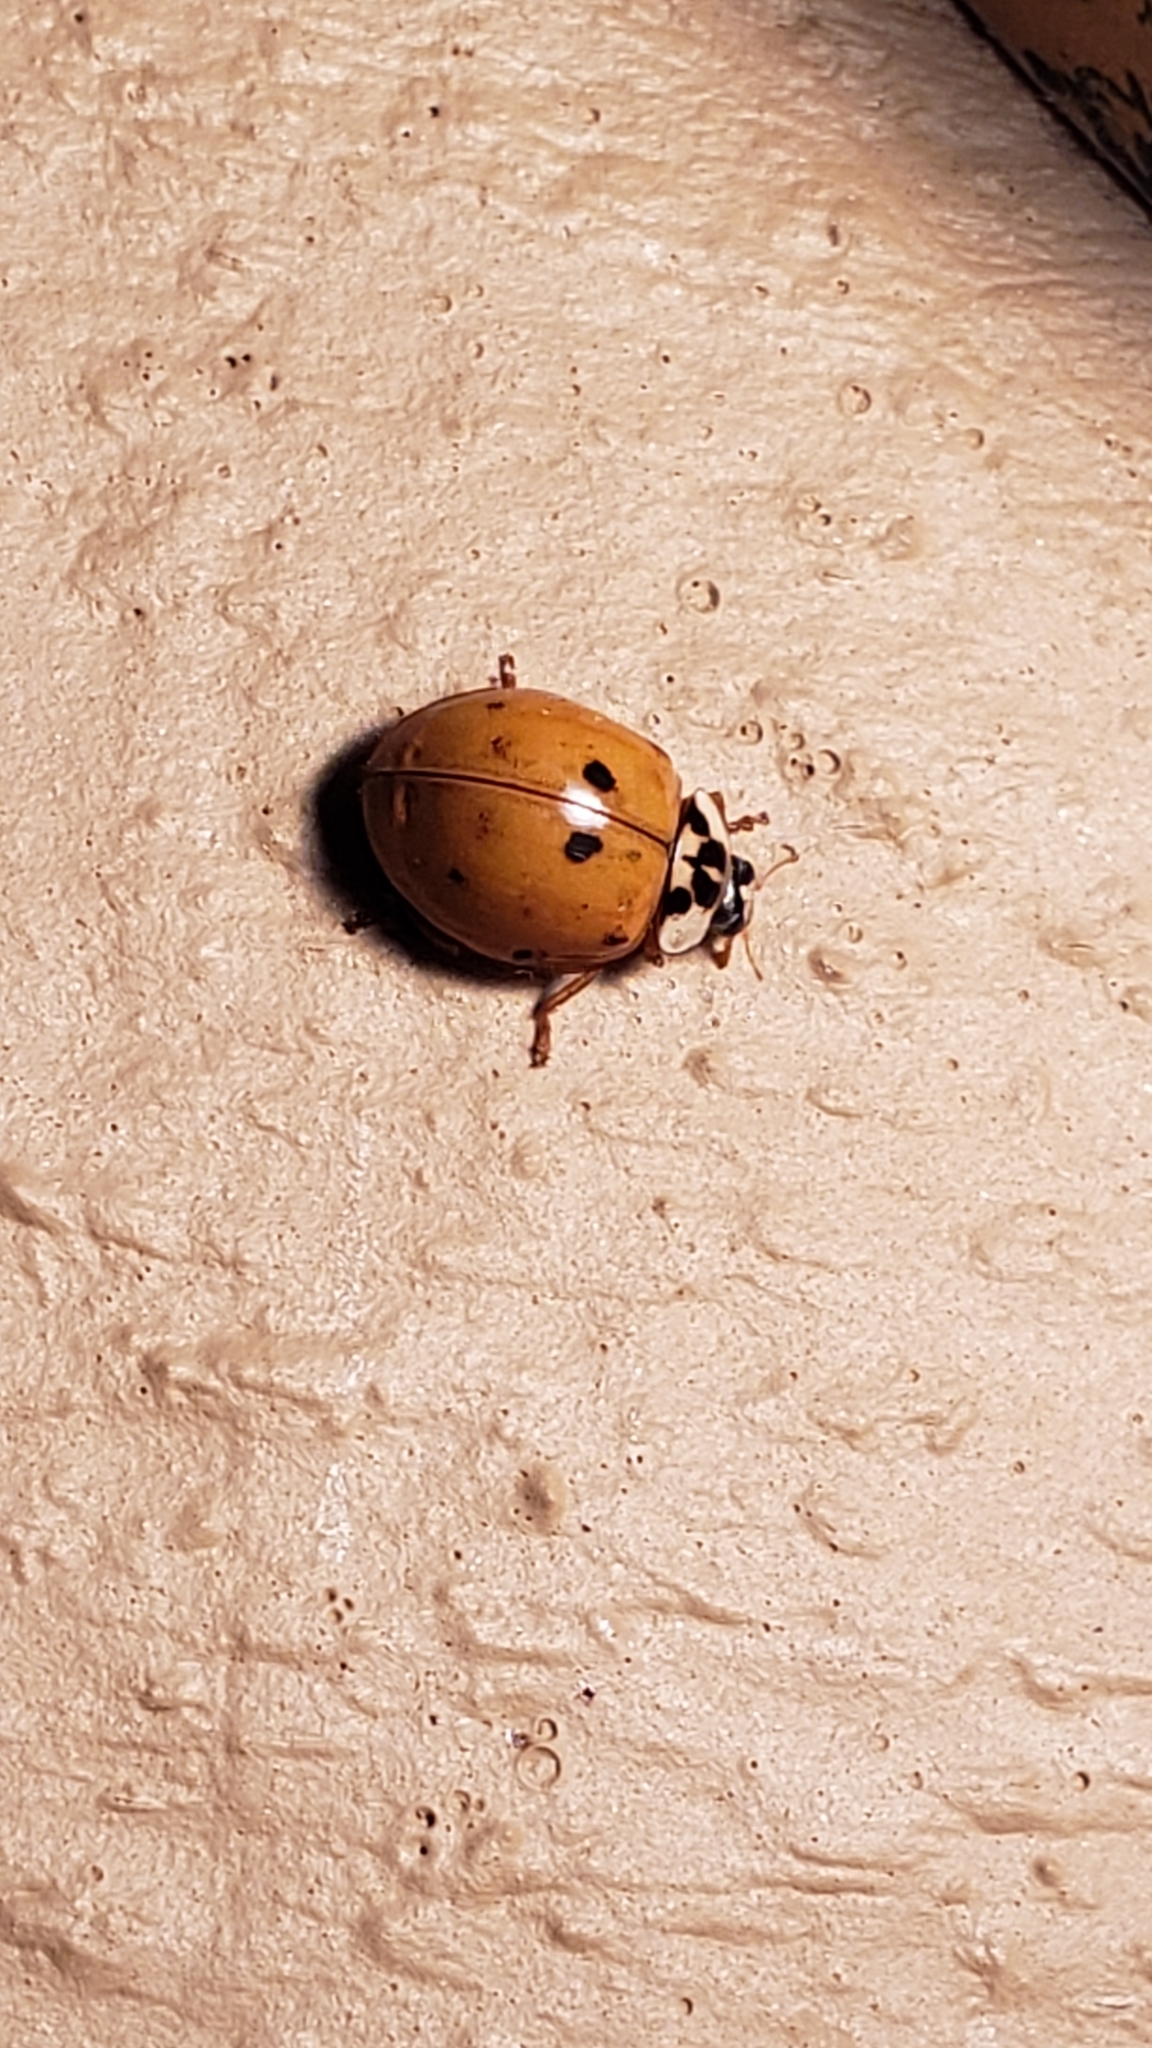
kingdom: Animalia
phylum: Arthropoda
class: Insecta
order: Coleoptera
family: Coccinellidae
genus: Harmonia
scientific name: Harmonia axyridis
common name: Harlequin ladybird
